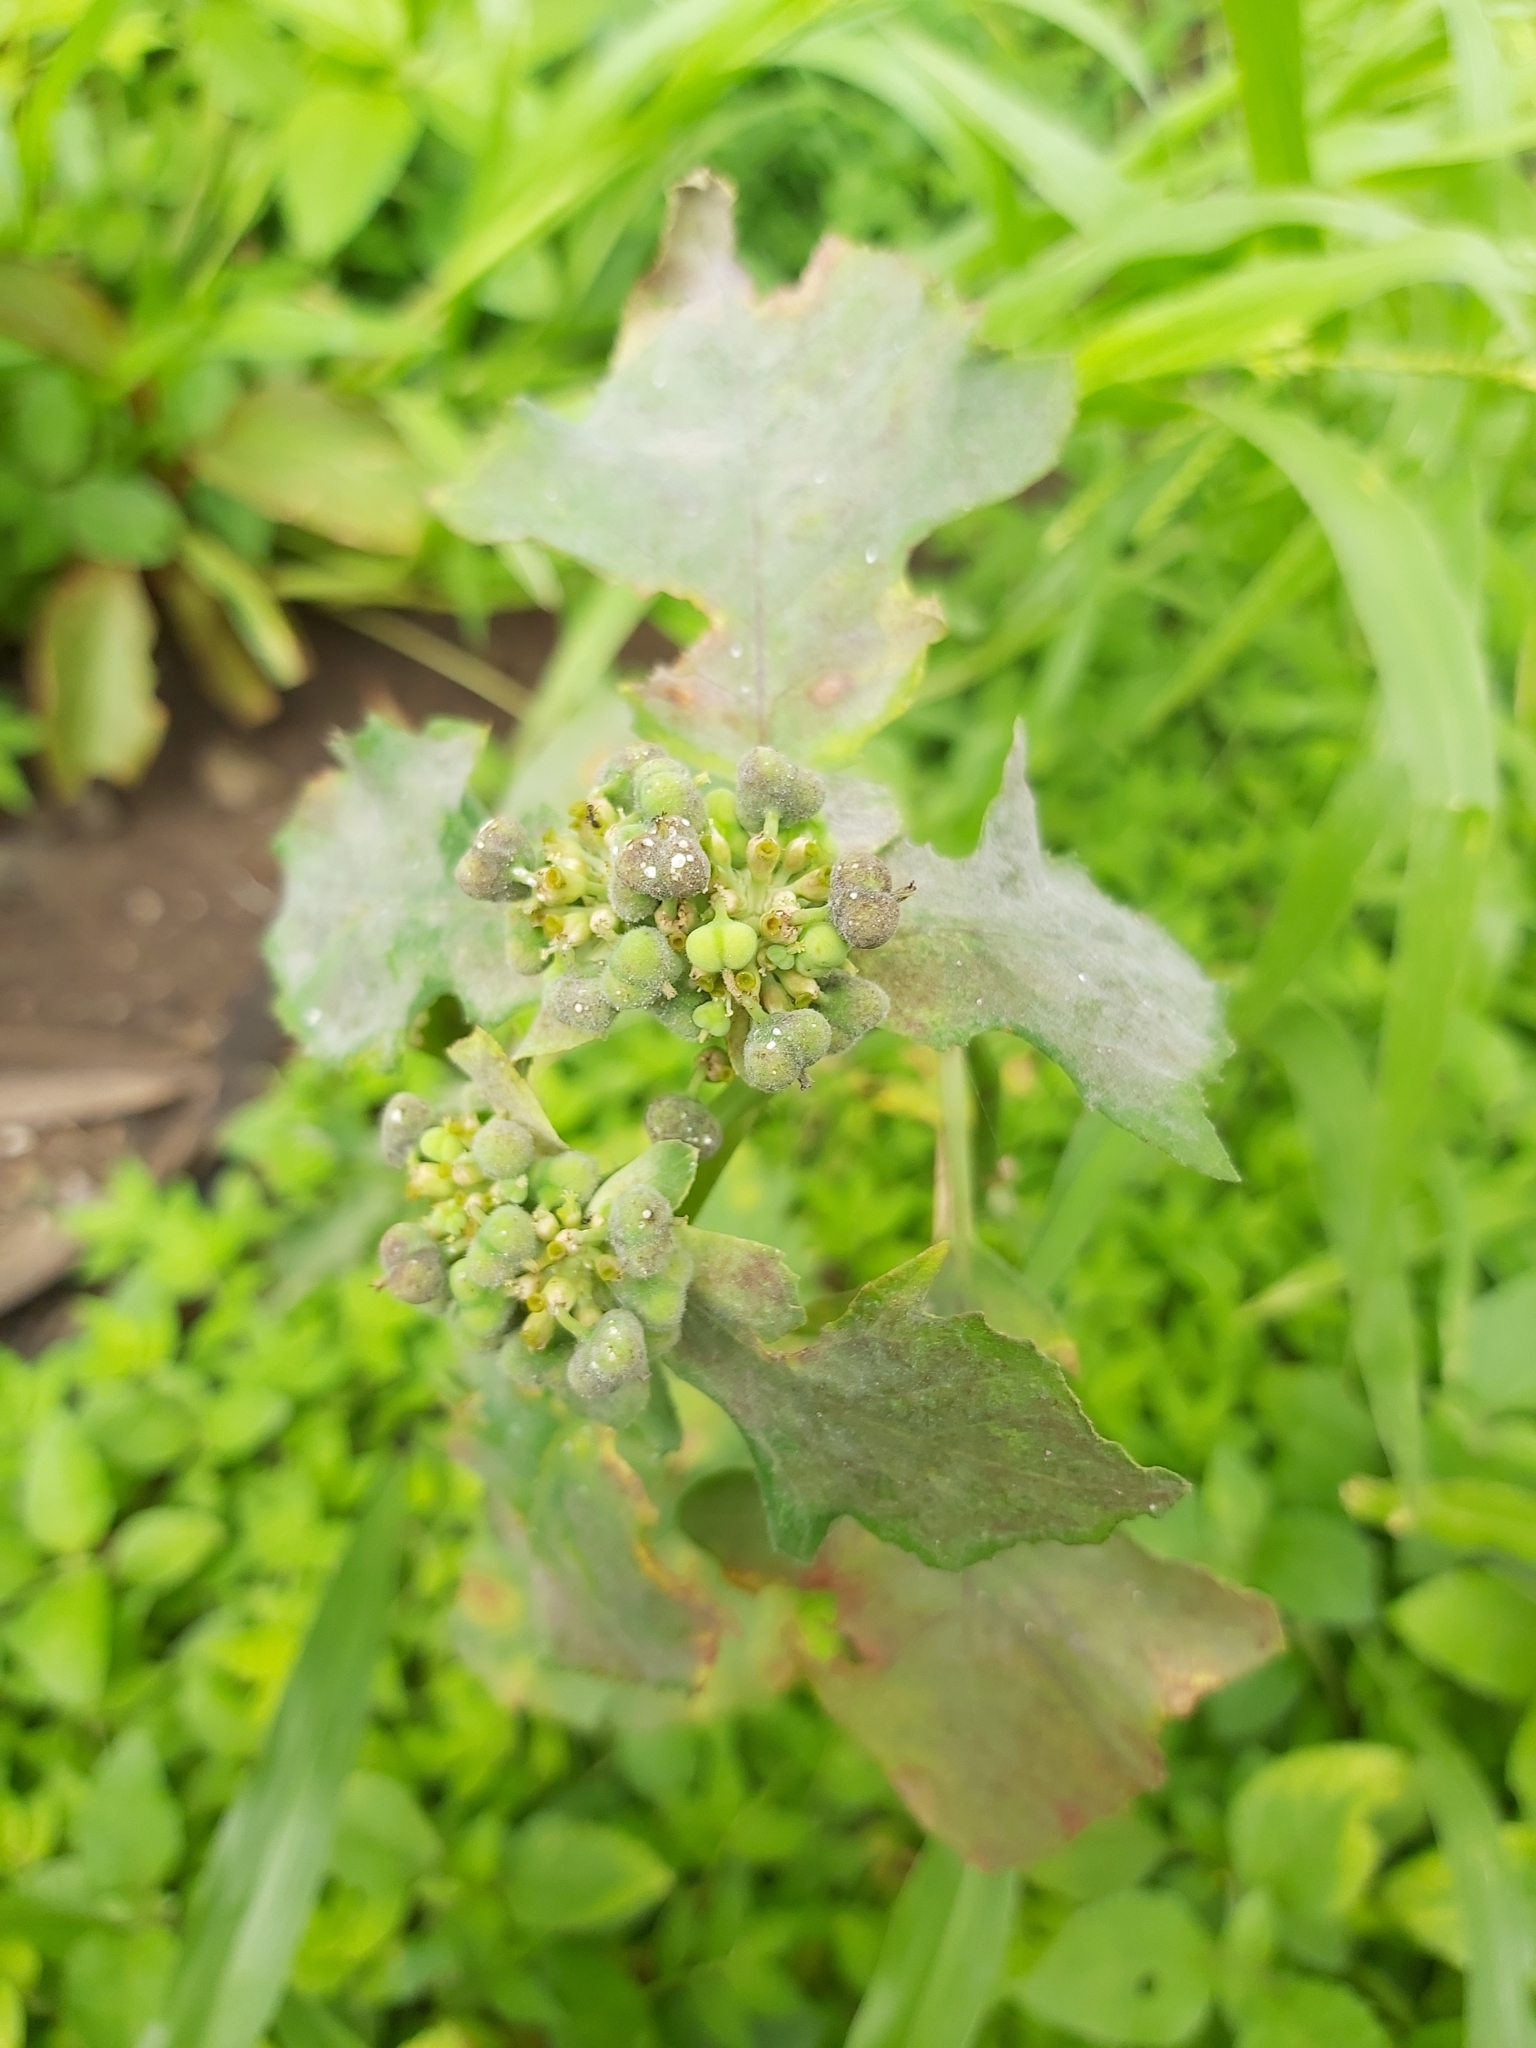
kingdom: Plantae
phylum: Tracheophyta
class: Magnoliopsida
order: Malpighiales
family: Euphorbiaceae
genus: Euphorbia
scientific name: Euphorbia heterophylla
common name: Mexican fireplant
